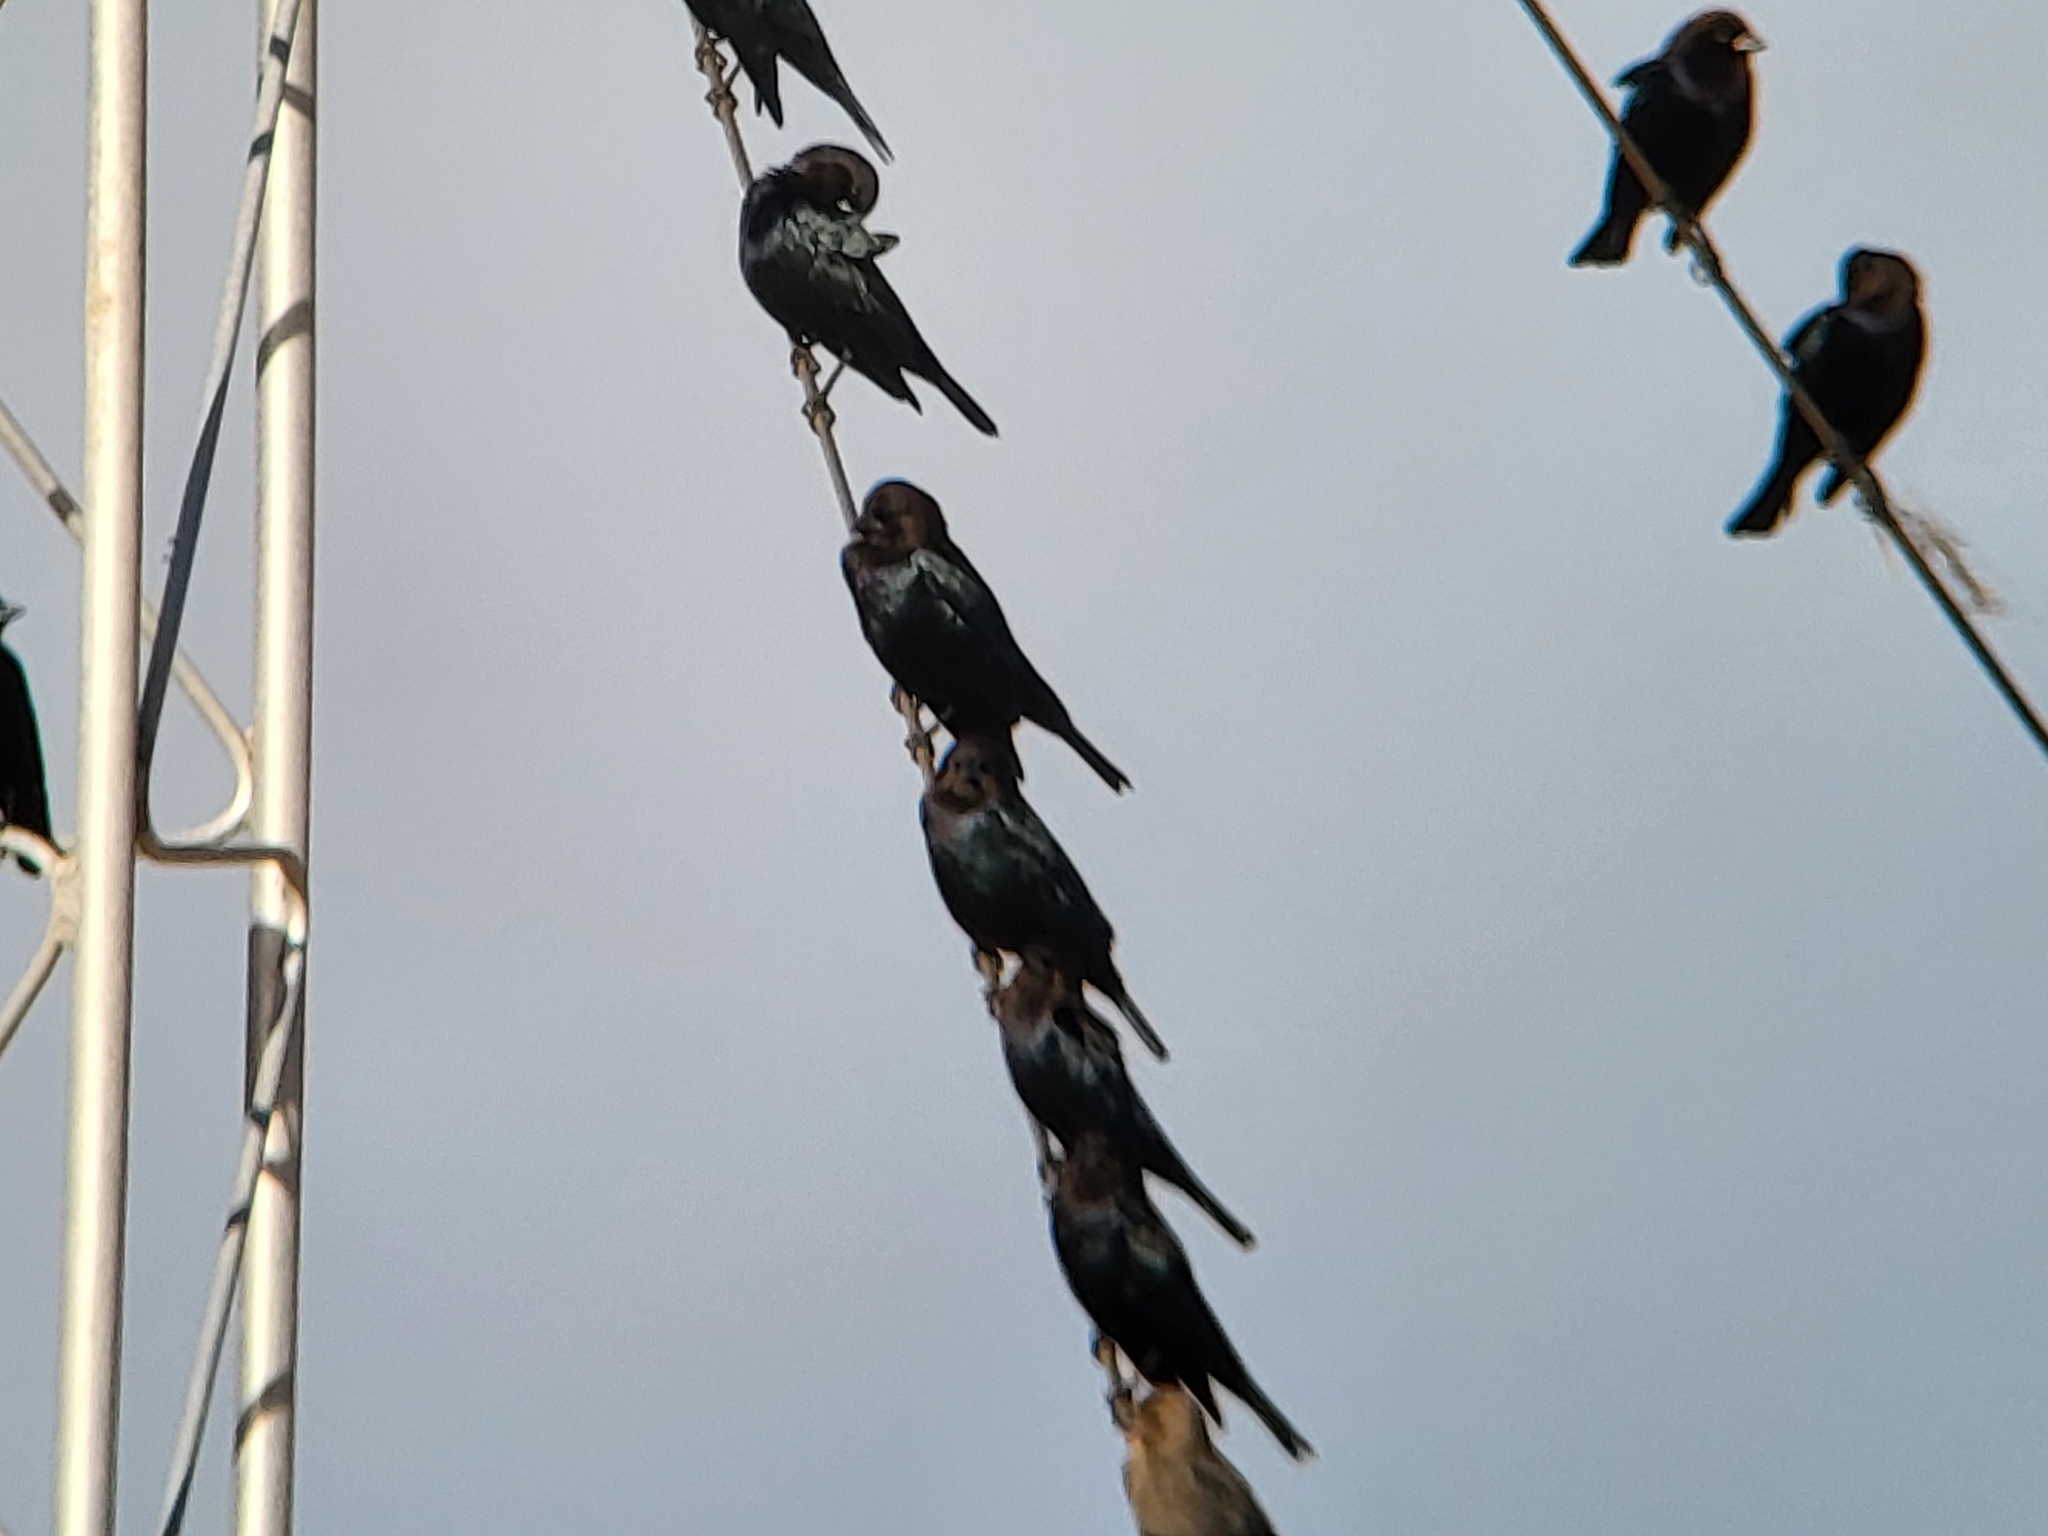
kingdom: Animalia
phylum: Chordata
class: Aves
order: Passeriformes
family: Icteridae
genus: Molothrus
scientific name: Molothrus ater
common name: Brown-headed cowbird
